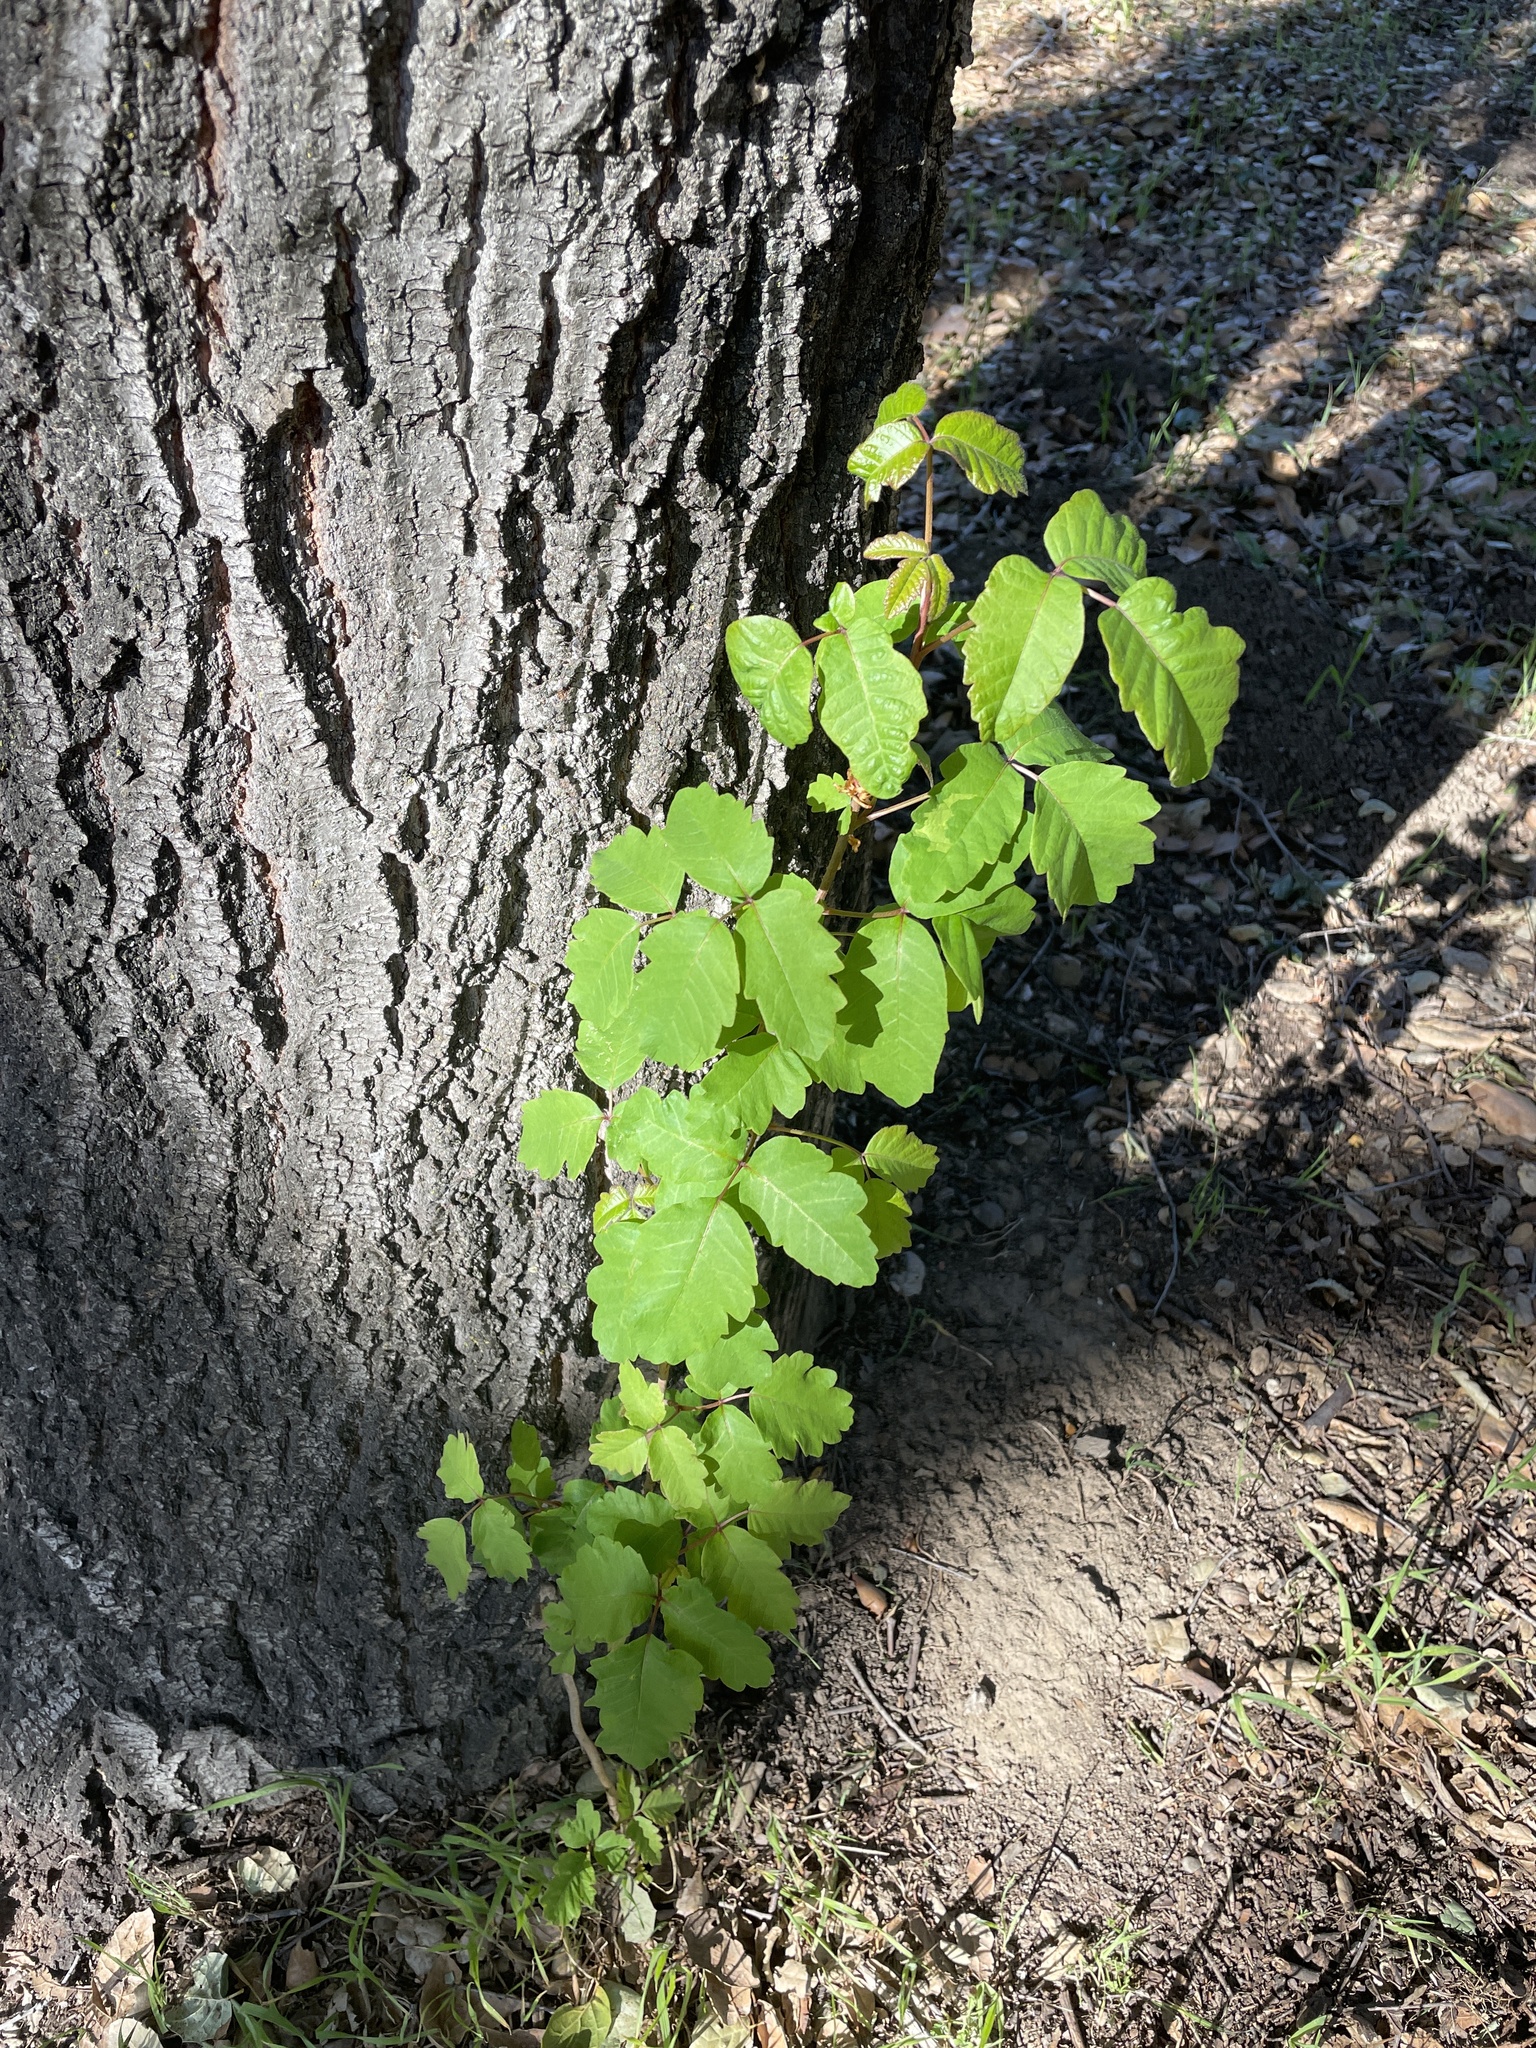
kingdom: Plantae
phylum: Tracheophyta
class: Magnoliopsida
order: Sapindales
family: Anacardiaceae
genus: Toxicodendron
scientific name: Toxicodendron diversilobum
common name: Pacific poison-oak
